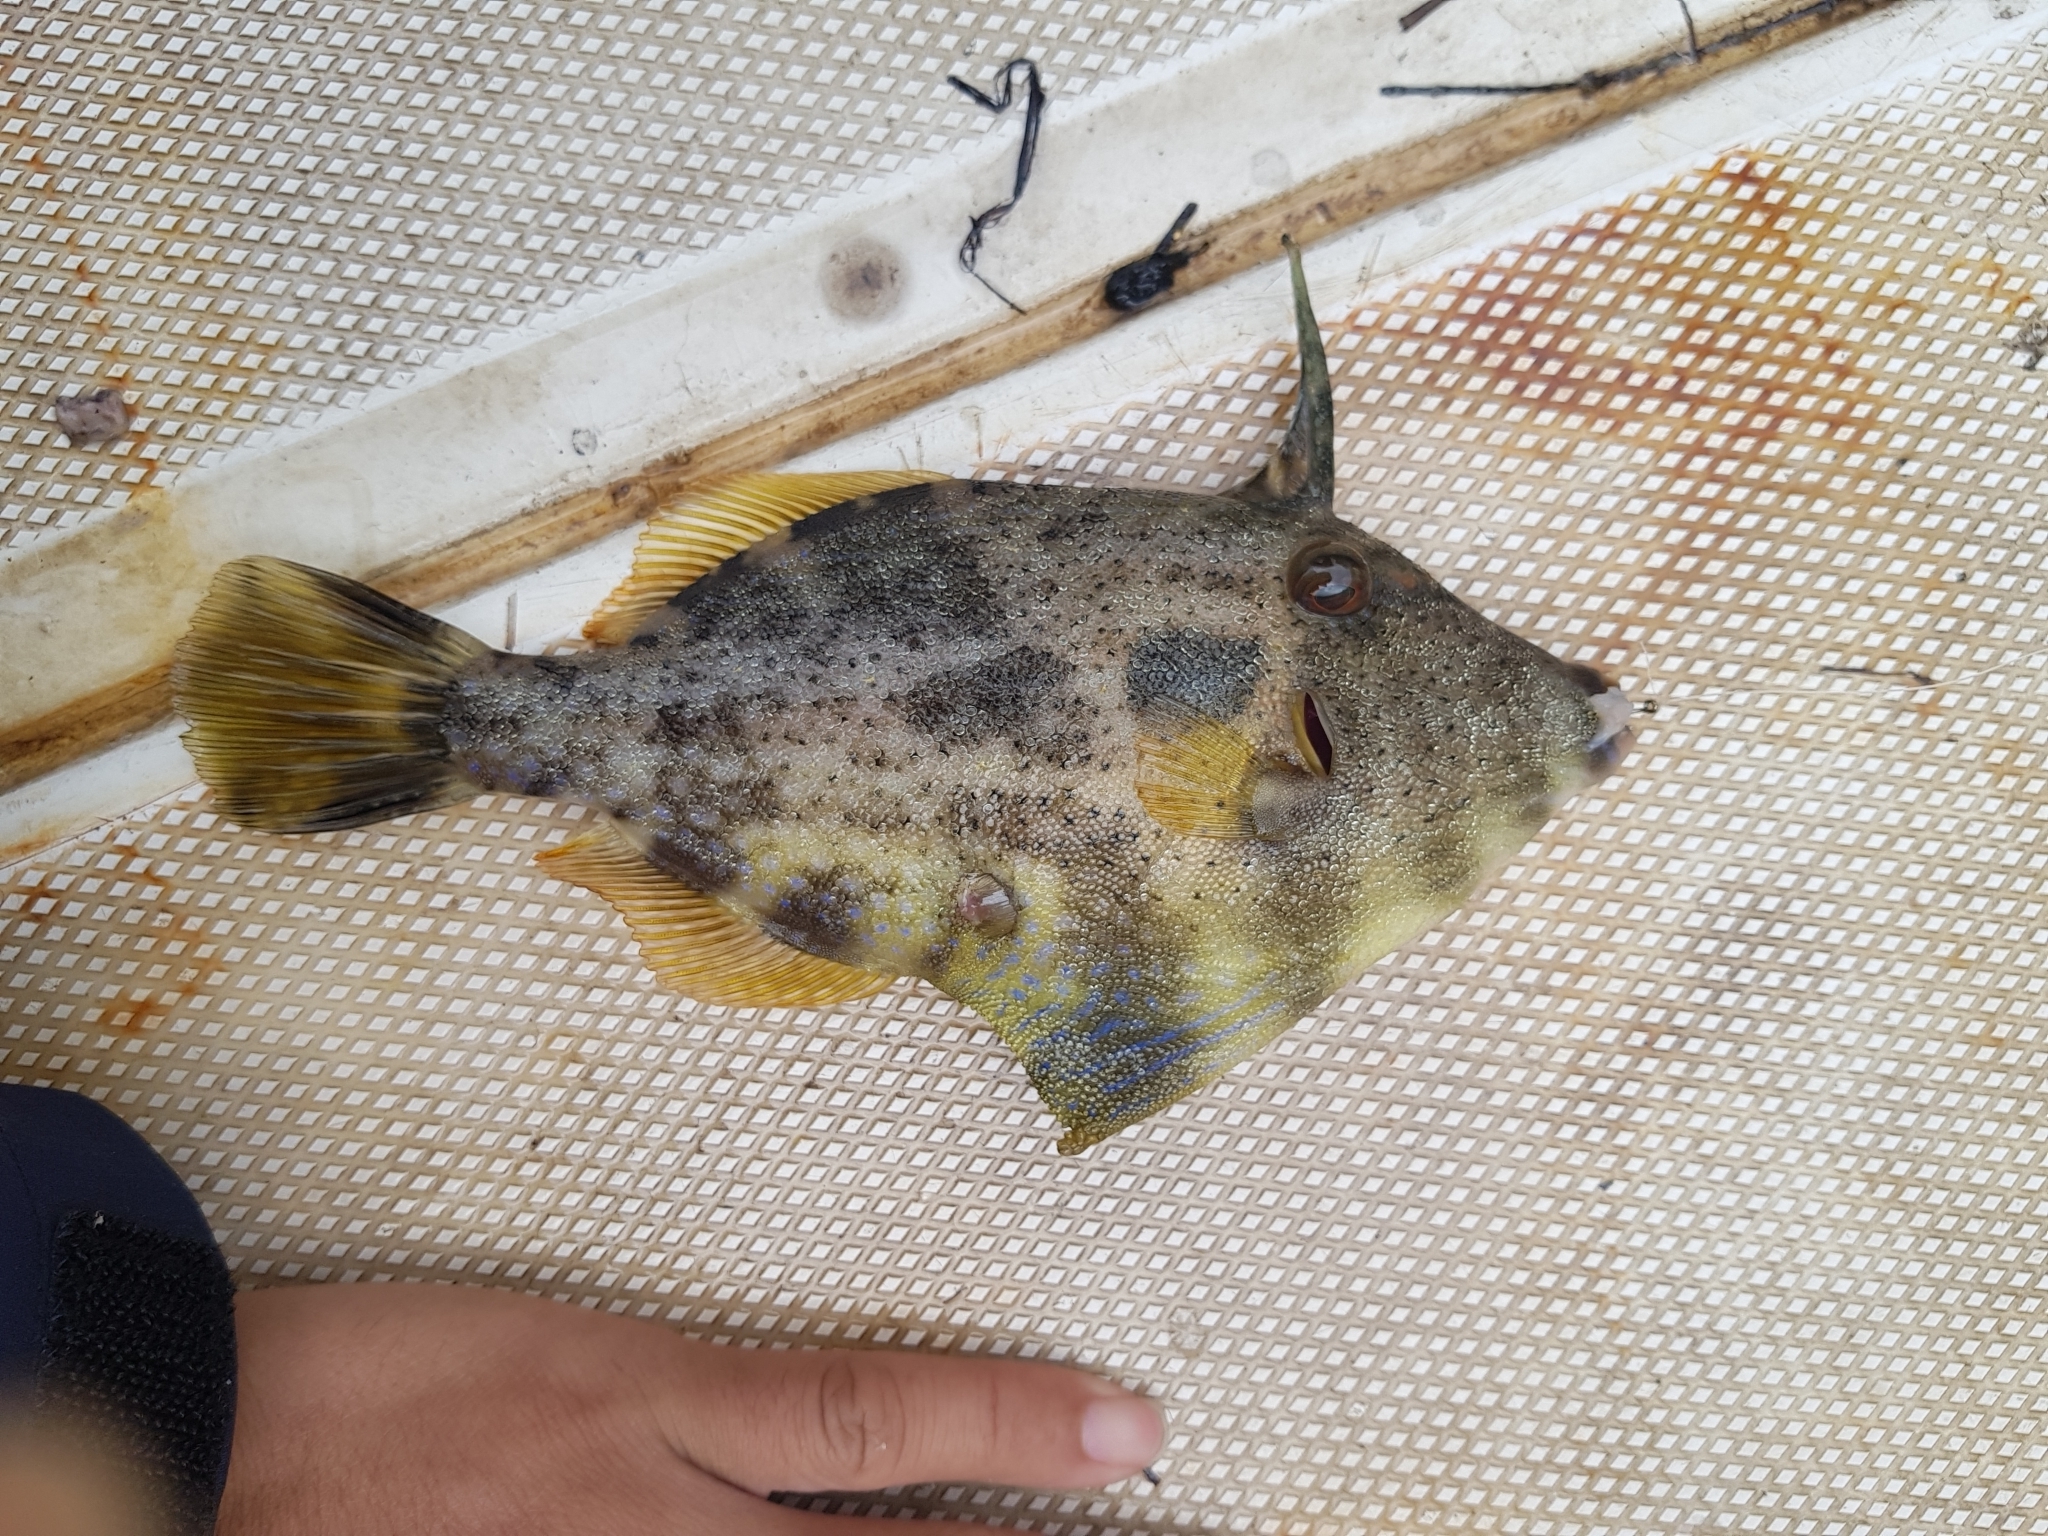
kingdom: Animalia
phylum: Chordata
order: Tetraodontiformes
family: Monacanthidae
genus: Scobinichthys
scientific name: Scobinichthys granulatus
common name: Rough leatherjacket
